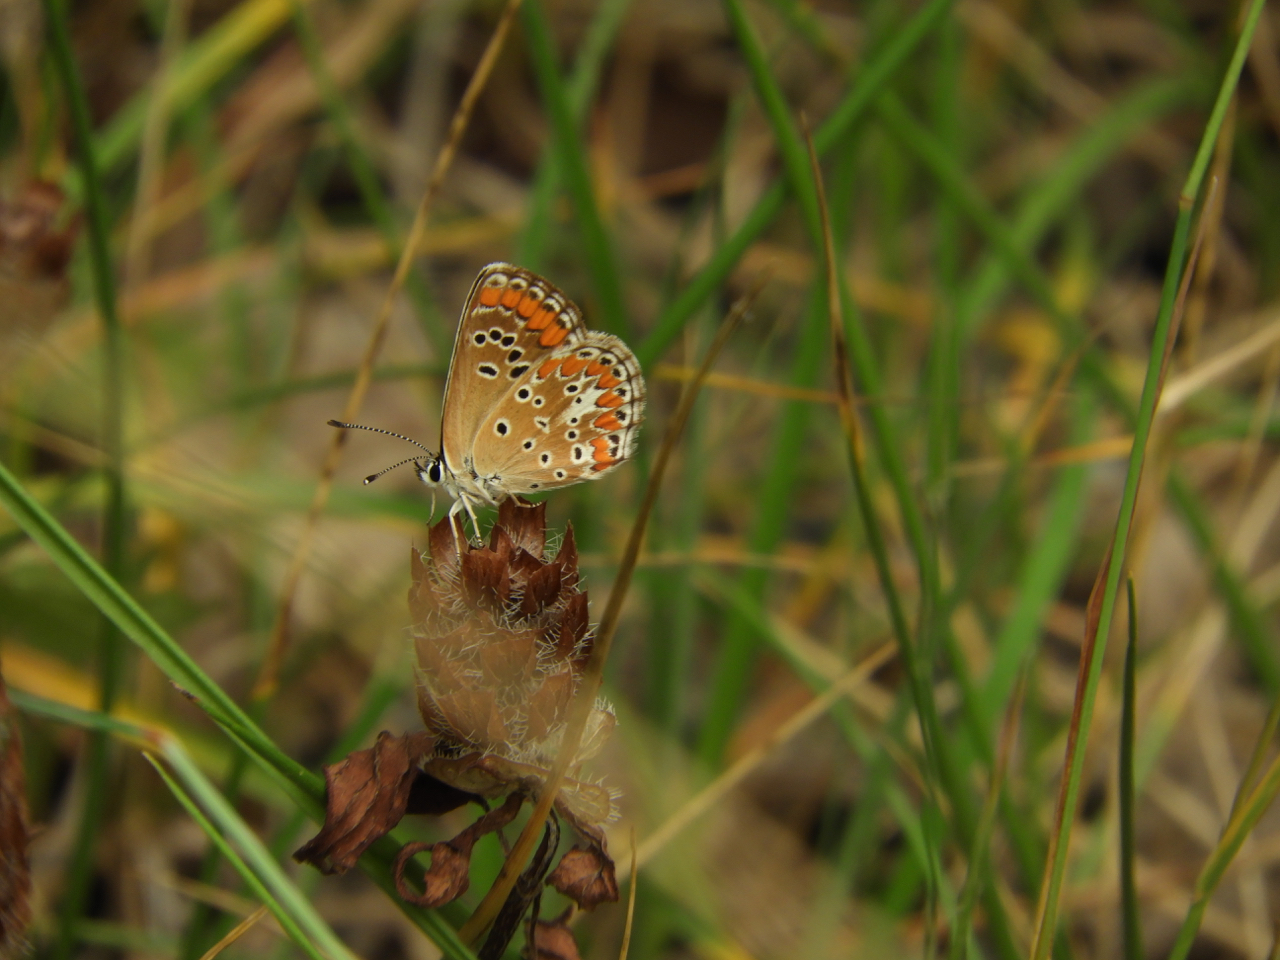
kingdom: Animalia
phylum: Arthropoda
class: Insecta
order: Lepidoptera
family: Lycaenidae
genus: Aricia
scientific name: Aricia agestis
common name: Brown argus
